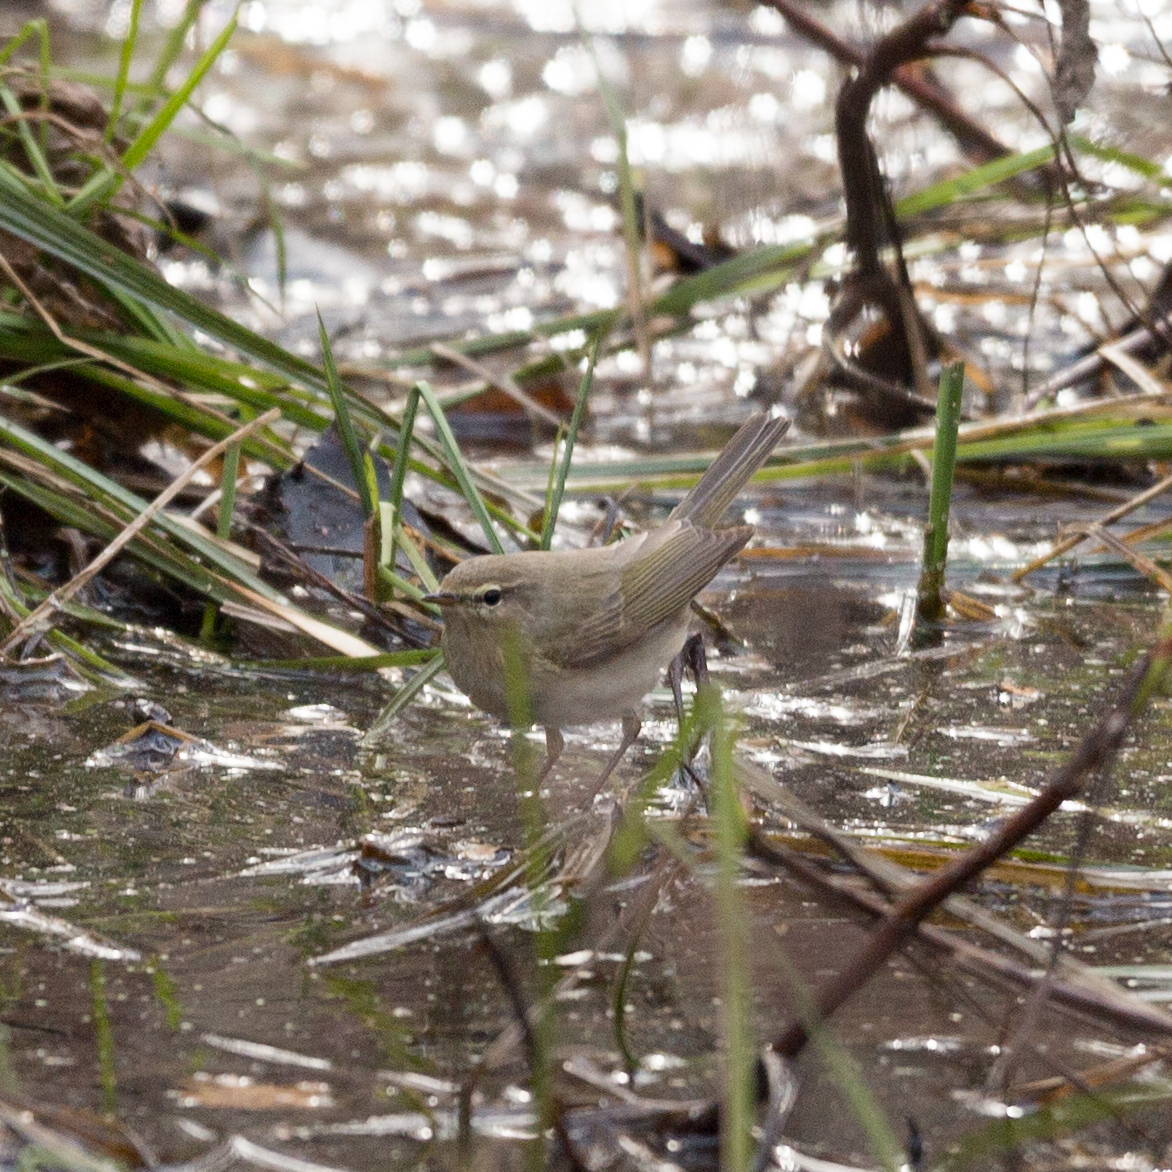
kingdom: Animalia
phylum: Chordata
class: Aves
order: Passeriformes
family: Phylloscopidae
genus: Phylloscopus
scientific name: Phylloscopus collybita
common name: Common chiffchaff
